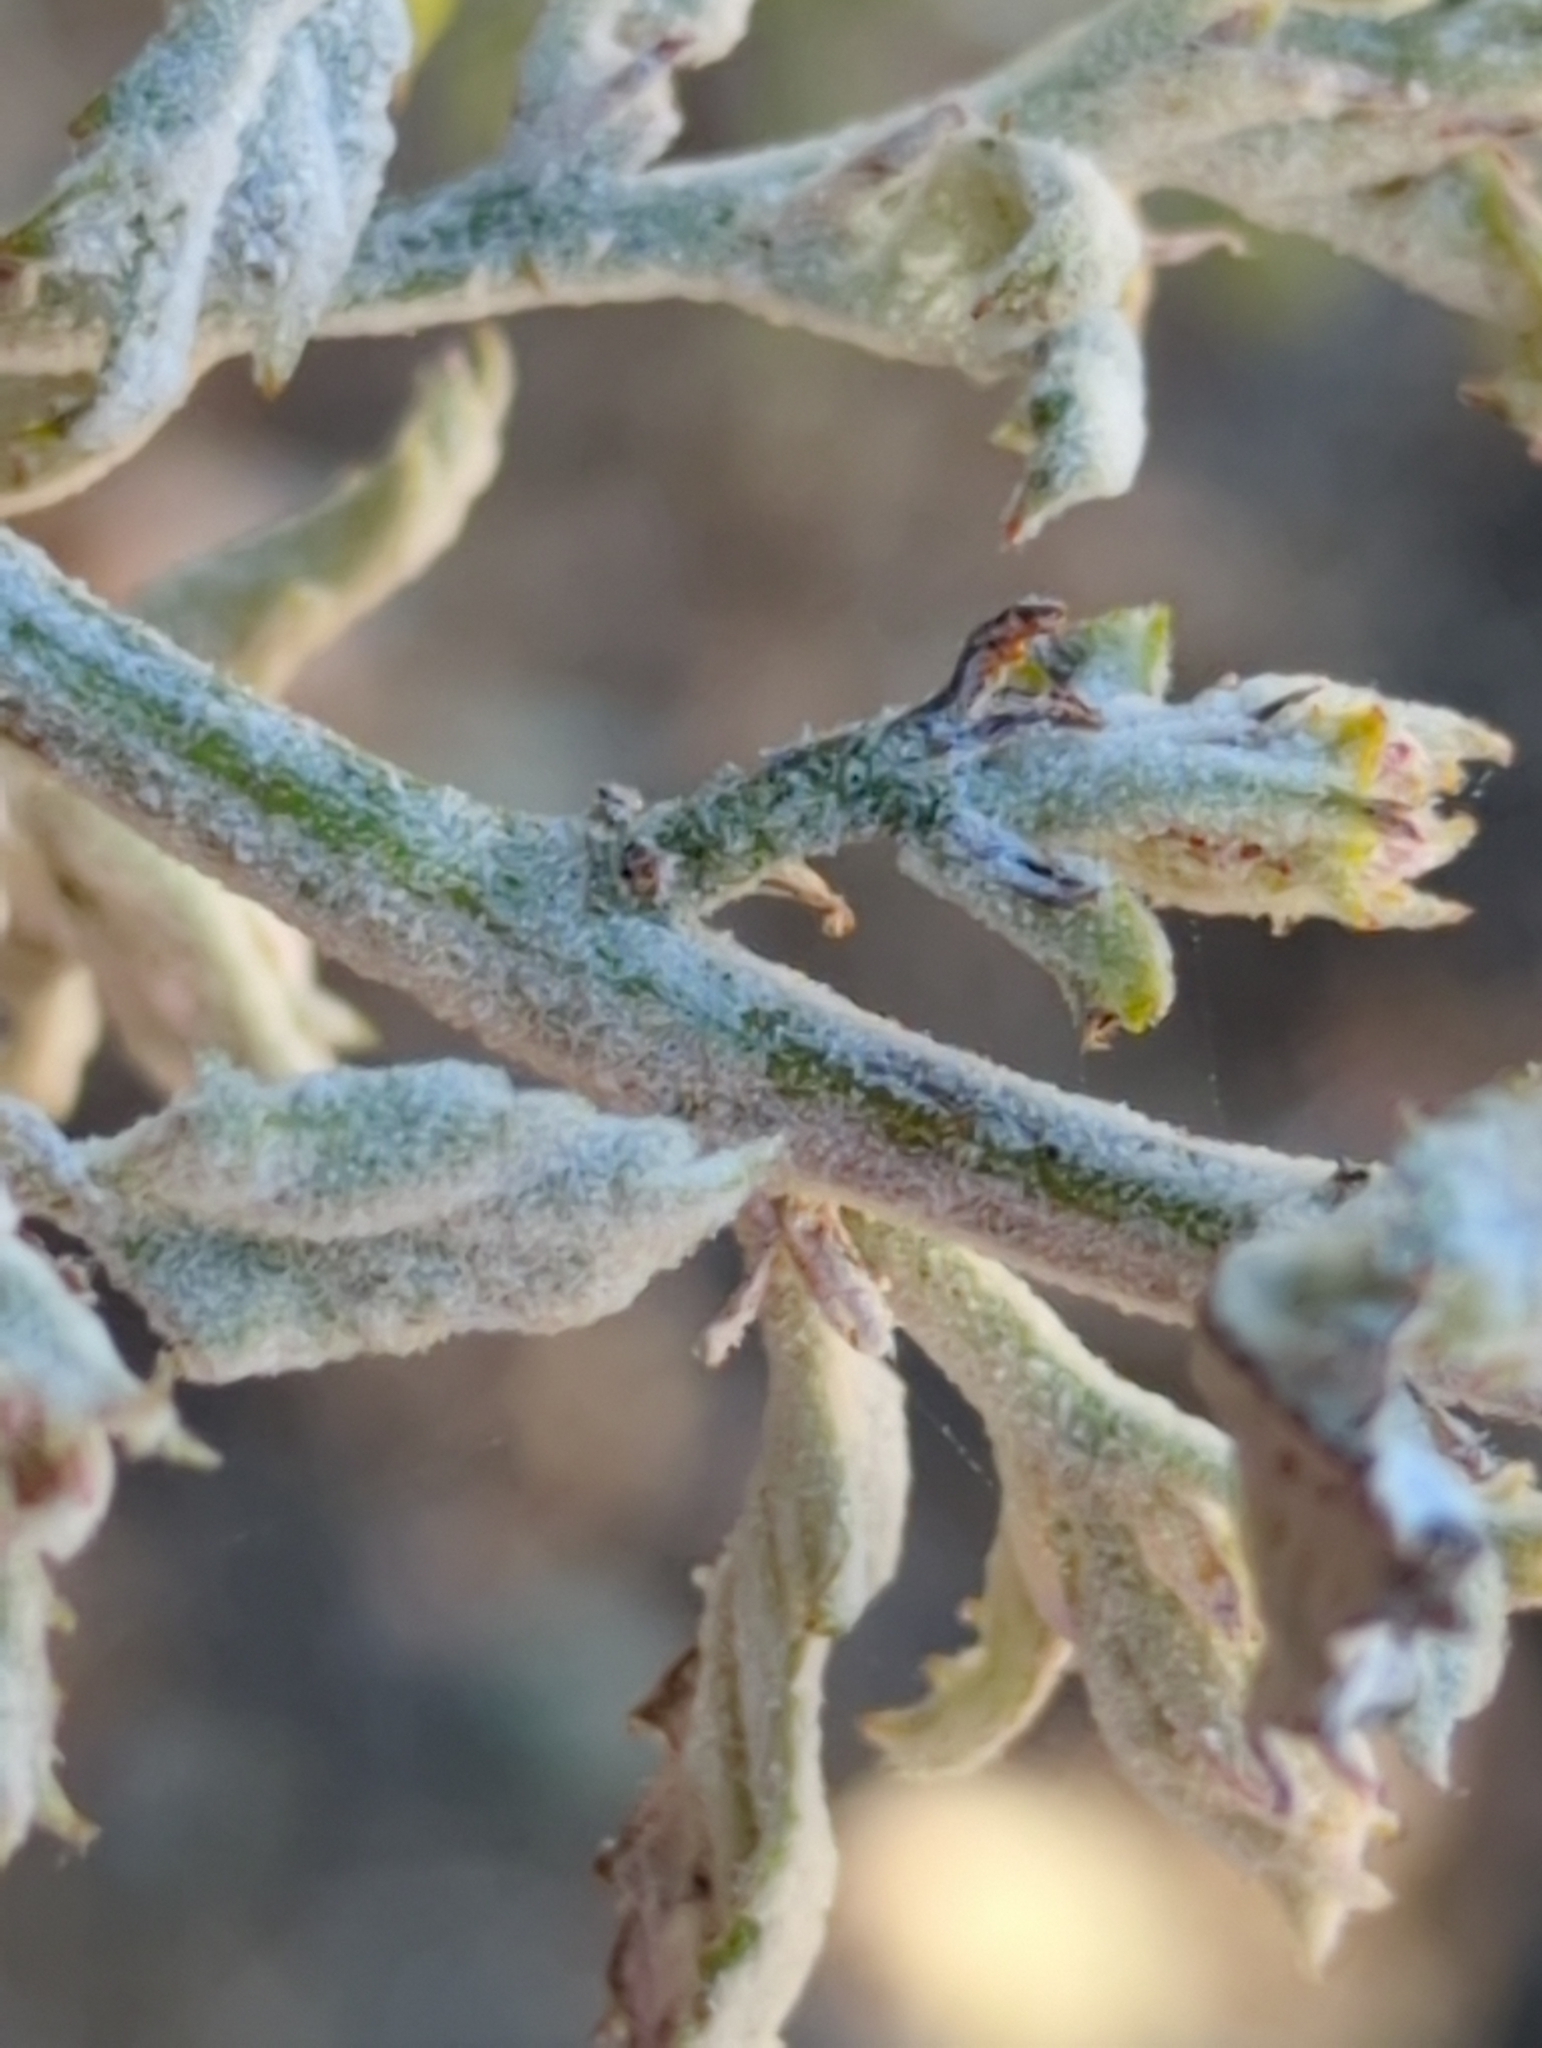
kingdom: Fungi
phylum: Ascomycota
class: Leotiomycetes
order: Helotiales
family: Erysiphaceae
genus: Cystotheca
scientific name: Cystotheca lanestris
